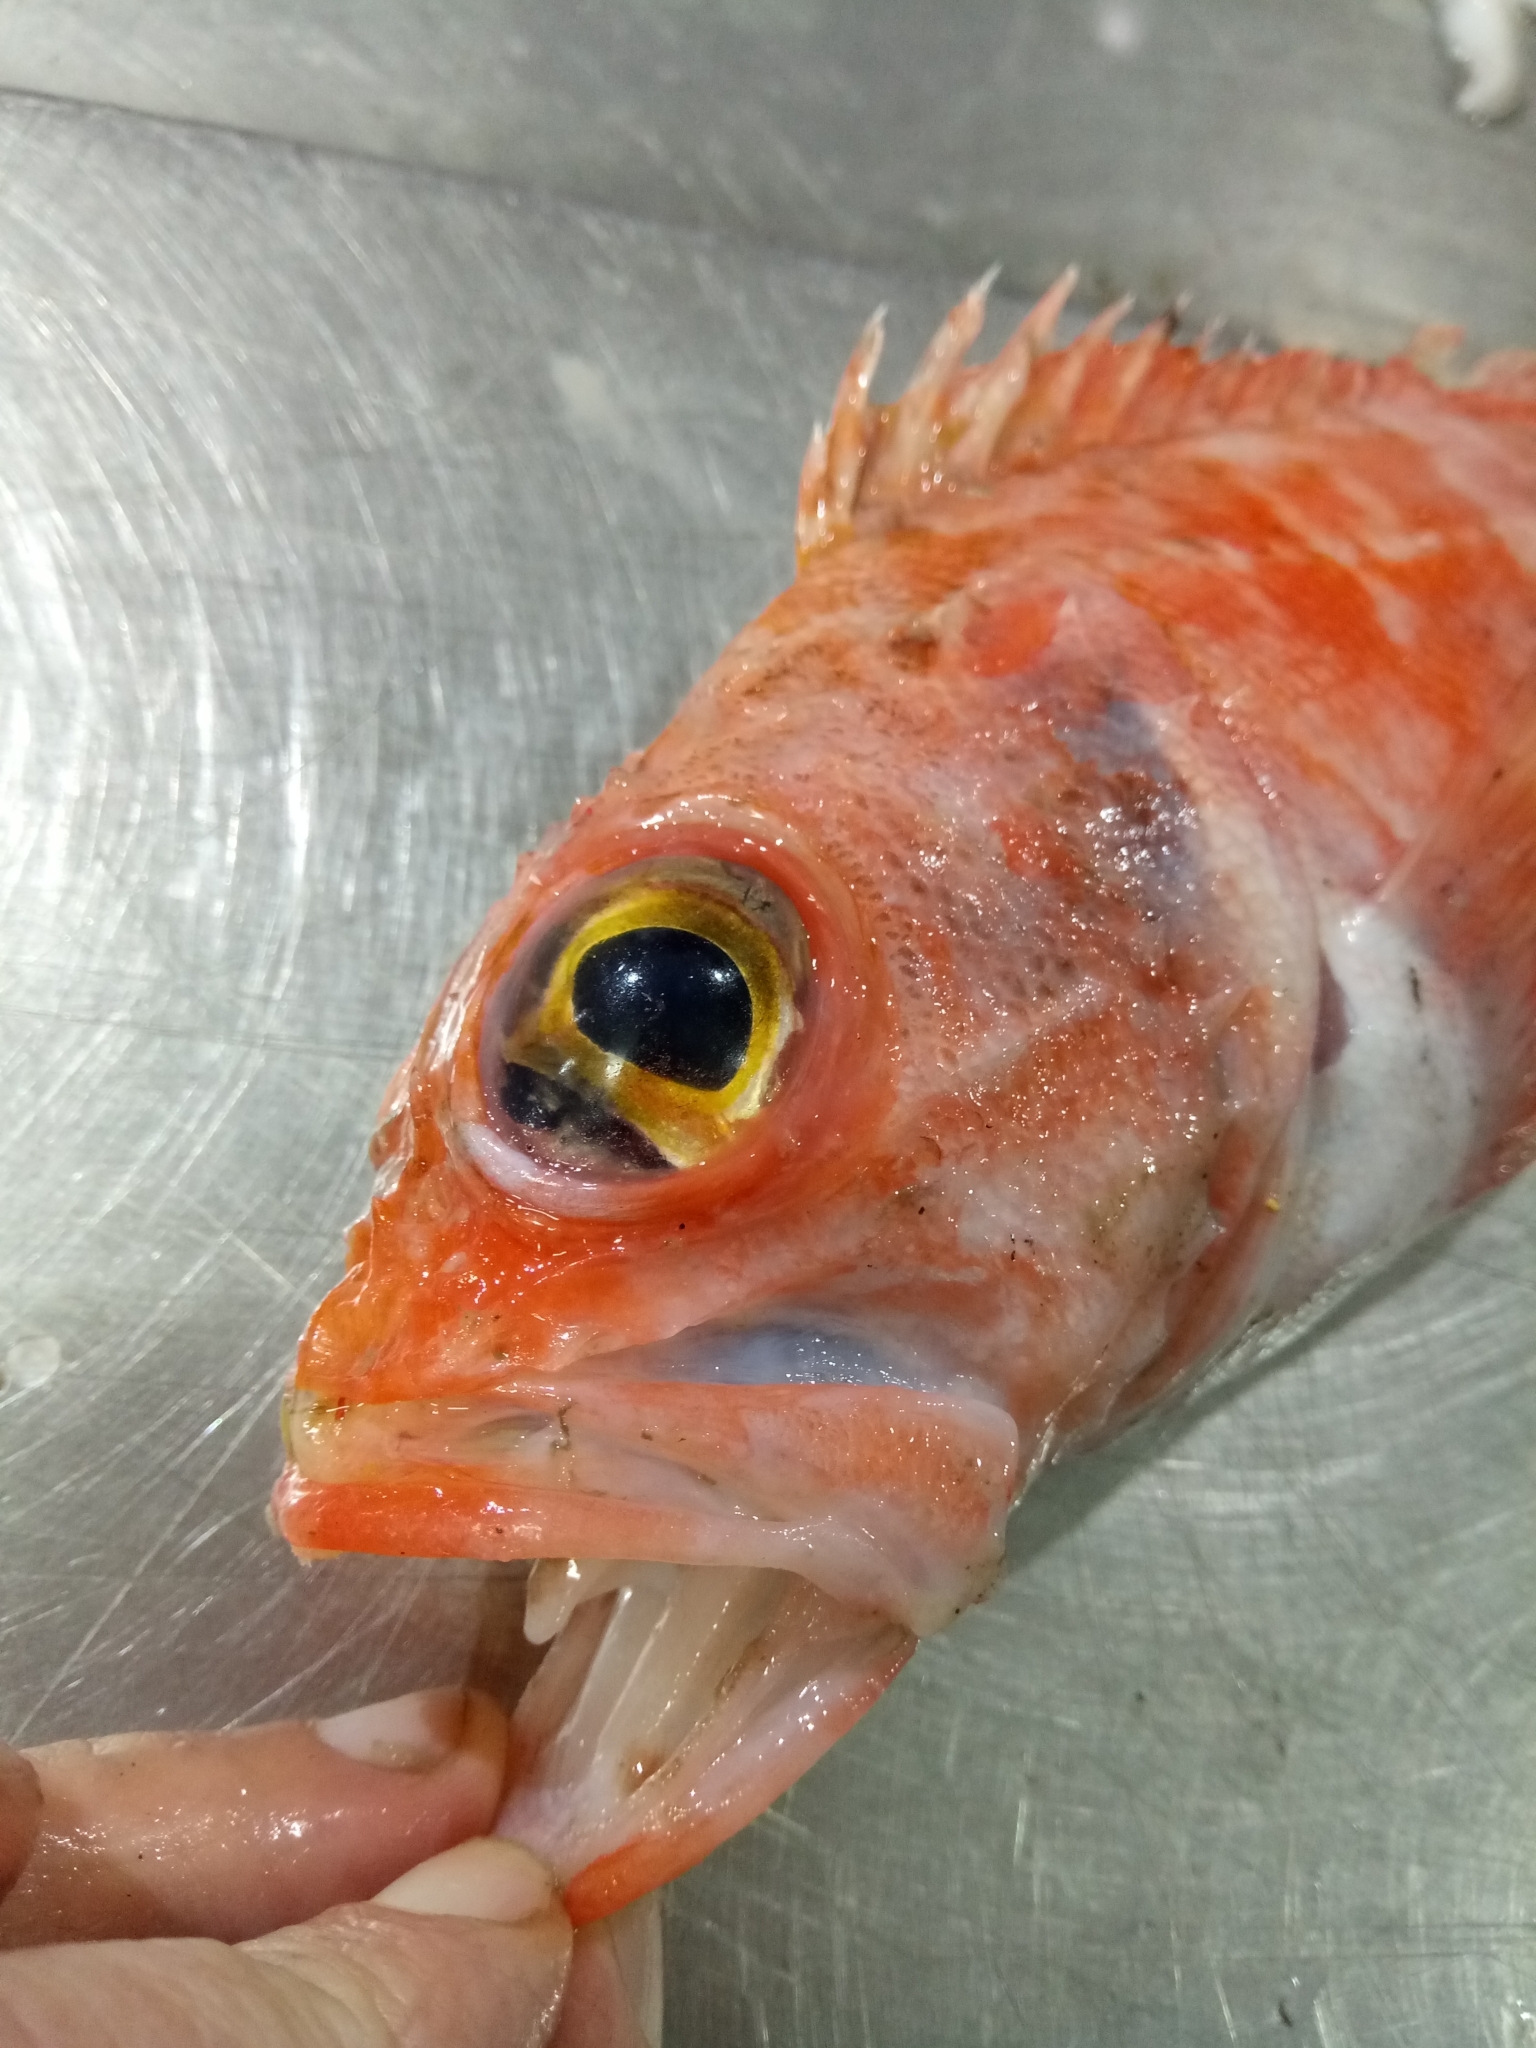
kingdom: Animalia
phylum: Chordata
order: Scorpaeniformes
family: Sebastidae
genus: Helicolenus
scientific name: Helicolenus dactylopterus
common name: Blackbelly rosefish
